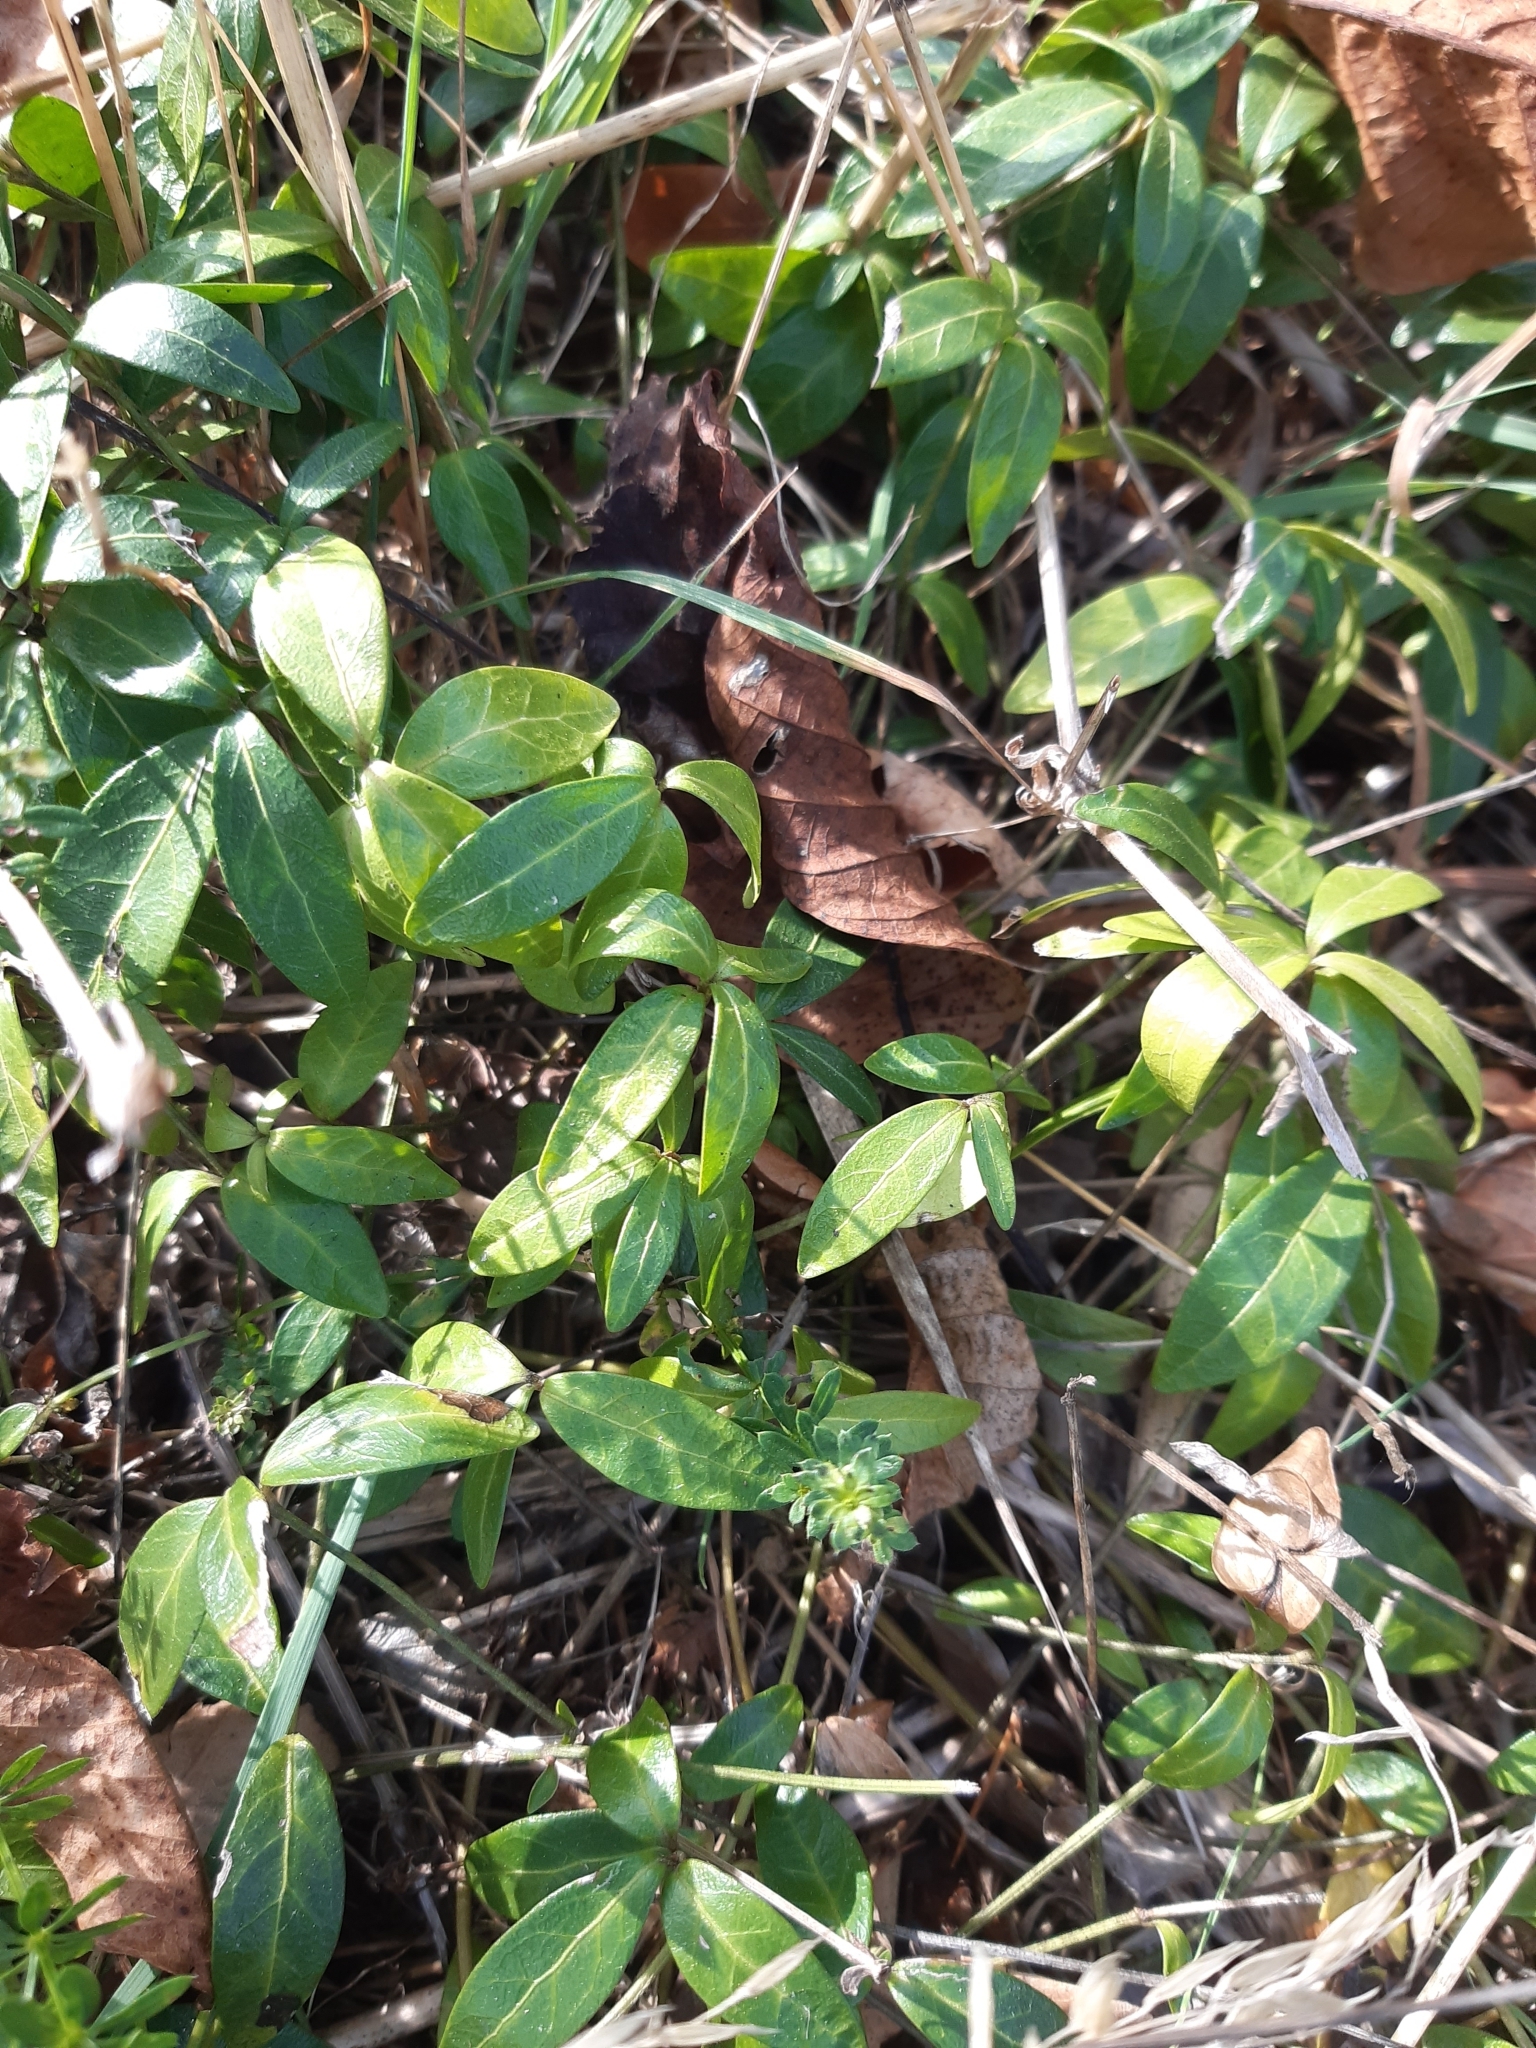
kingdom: Plantae
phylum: Tracheophyta
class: Magnoliopsida
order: Gentianales
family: Apocynaceae
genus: Vinca
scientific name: Vinca minor
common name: Lesser periwinkle
